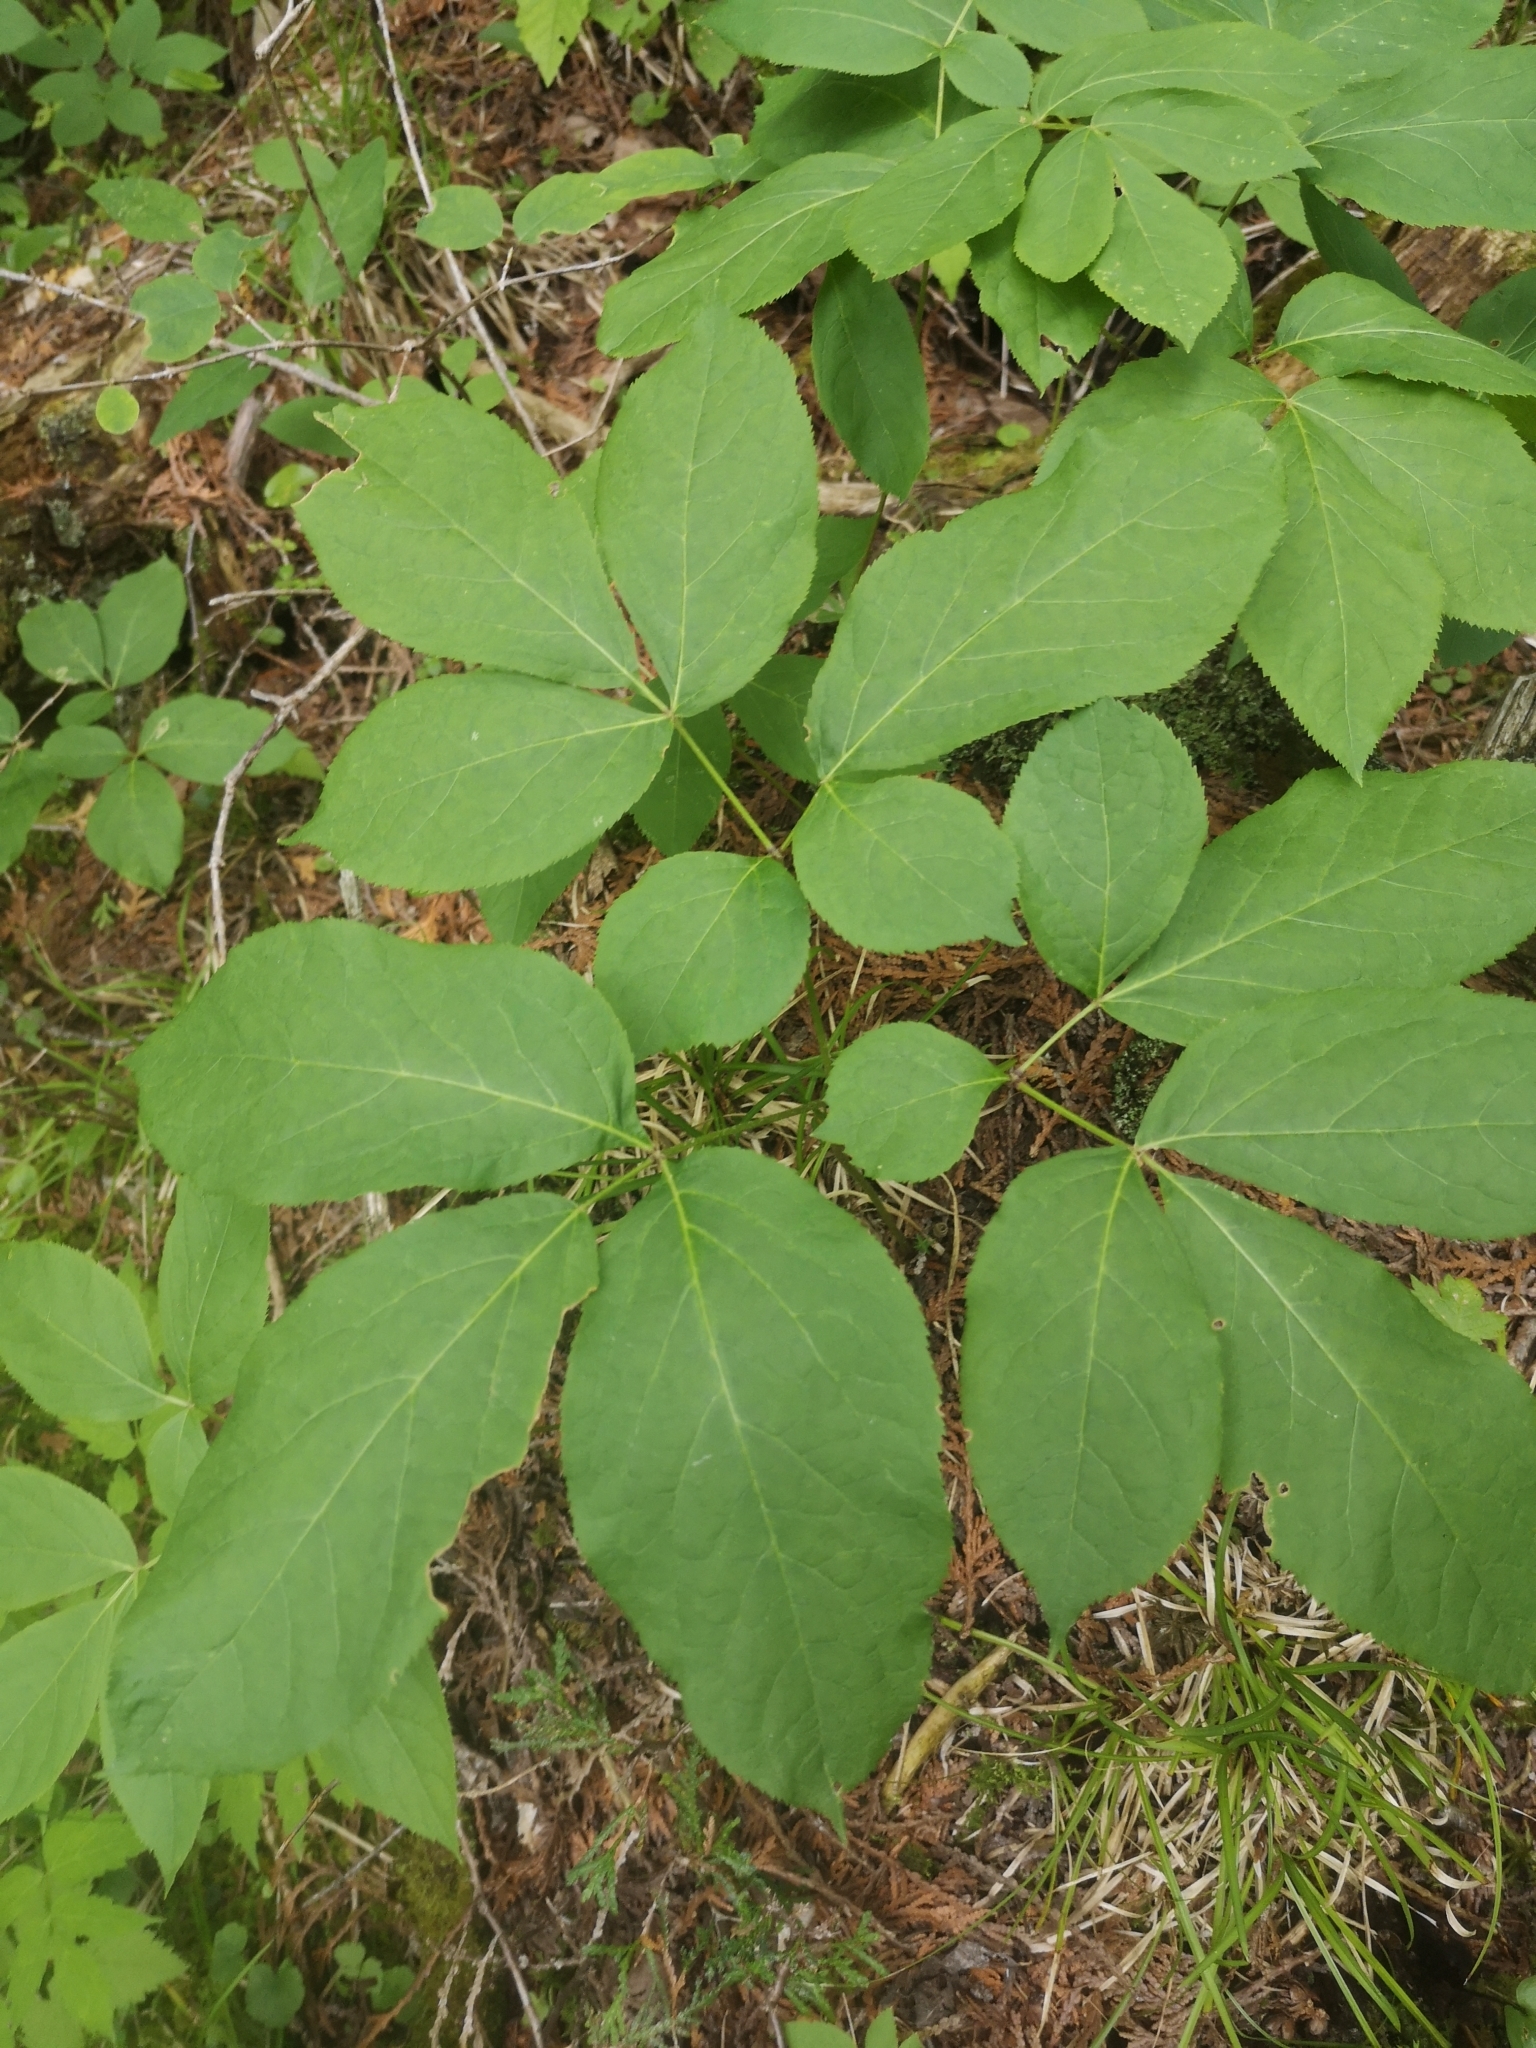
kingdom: Plantae
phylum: Tracheophyta
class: Magnoliopsida
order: Apiales
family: Araliaceae
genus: Aralia
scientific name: Aralia nudicaulis
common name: Wild sarsaparilla
